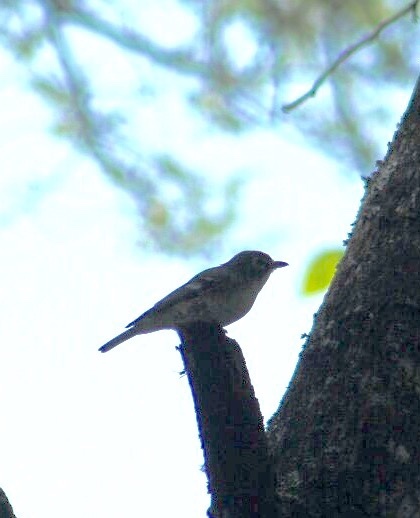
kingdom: Animalia
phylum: Chordata
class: Aves
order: Passeriformes
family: Vireonidae
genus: Vireo
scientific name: Vireo solitarius
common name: Blue-headed vireo
